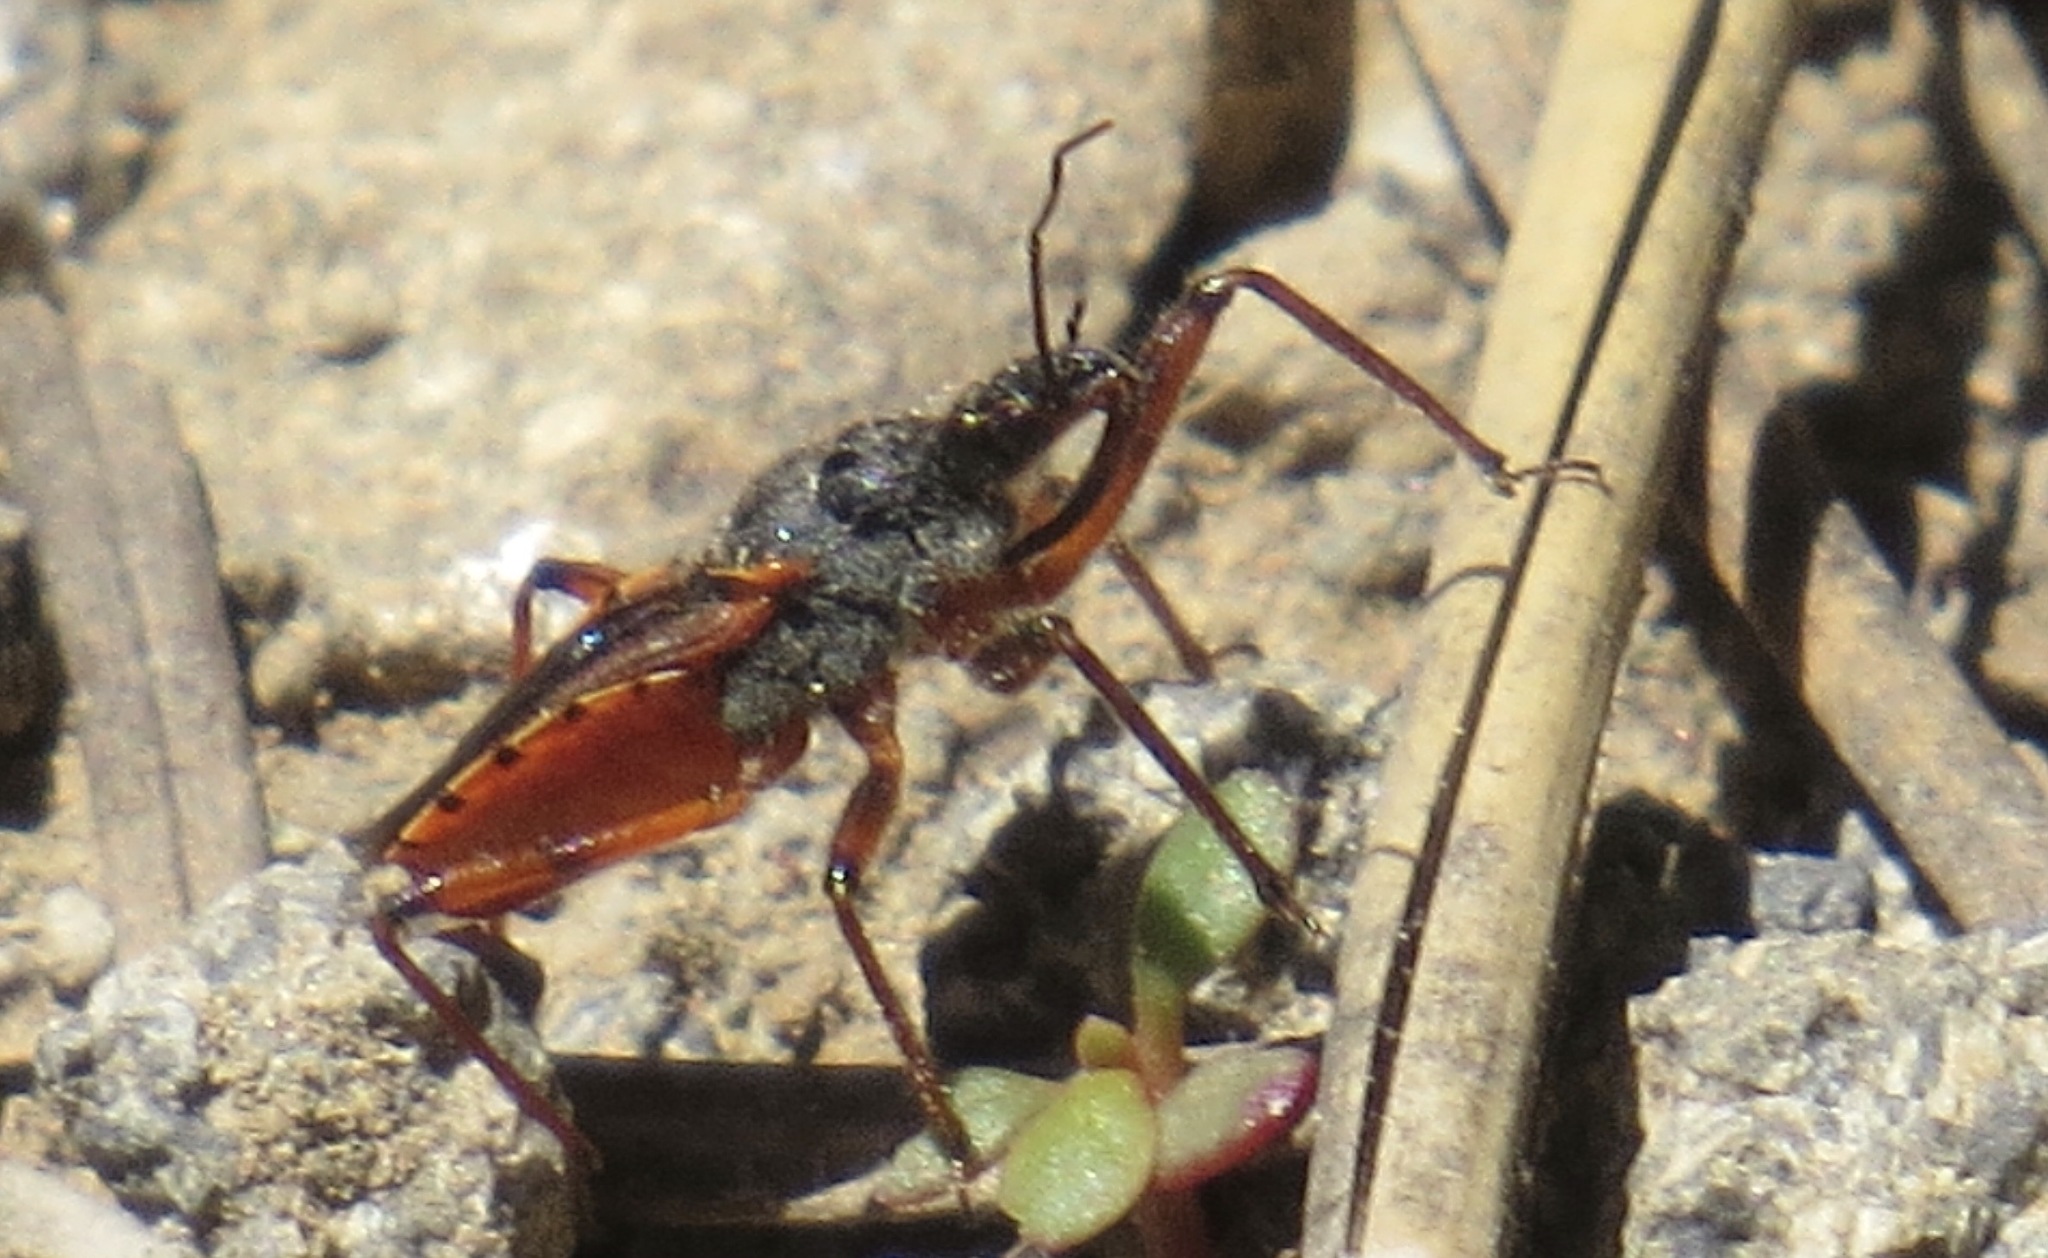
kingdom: Animalia
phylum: Arthropoda
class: Insecta
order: Hemiptera
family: Reduviidae
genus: Rhynocoris
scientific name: Rhynocoris ventralis
